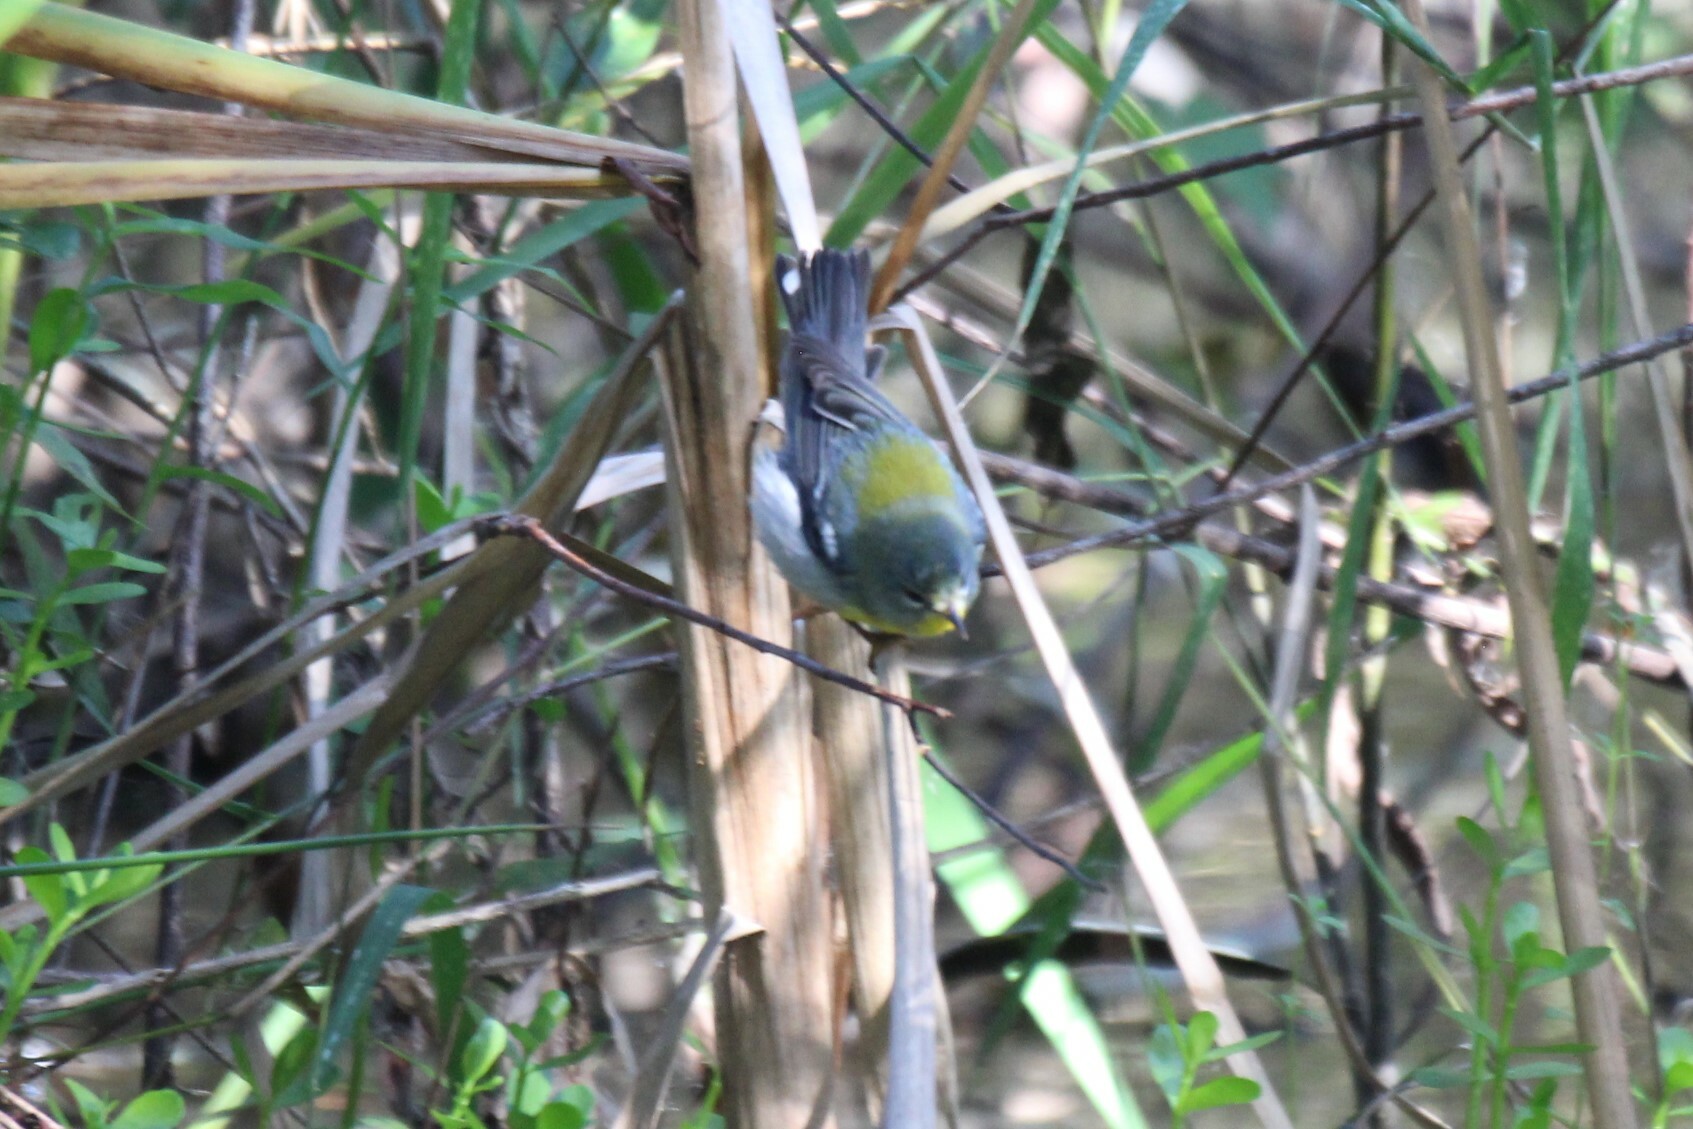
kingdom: Animalia
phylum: Chordata
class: Aves
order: Passeriformes
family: Parulidae
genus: Setophaga
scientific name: Setophaga americana
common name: Northern parula
